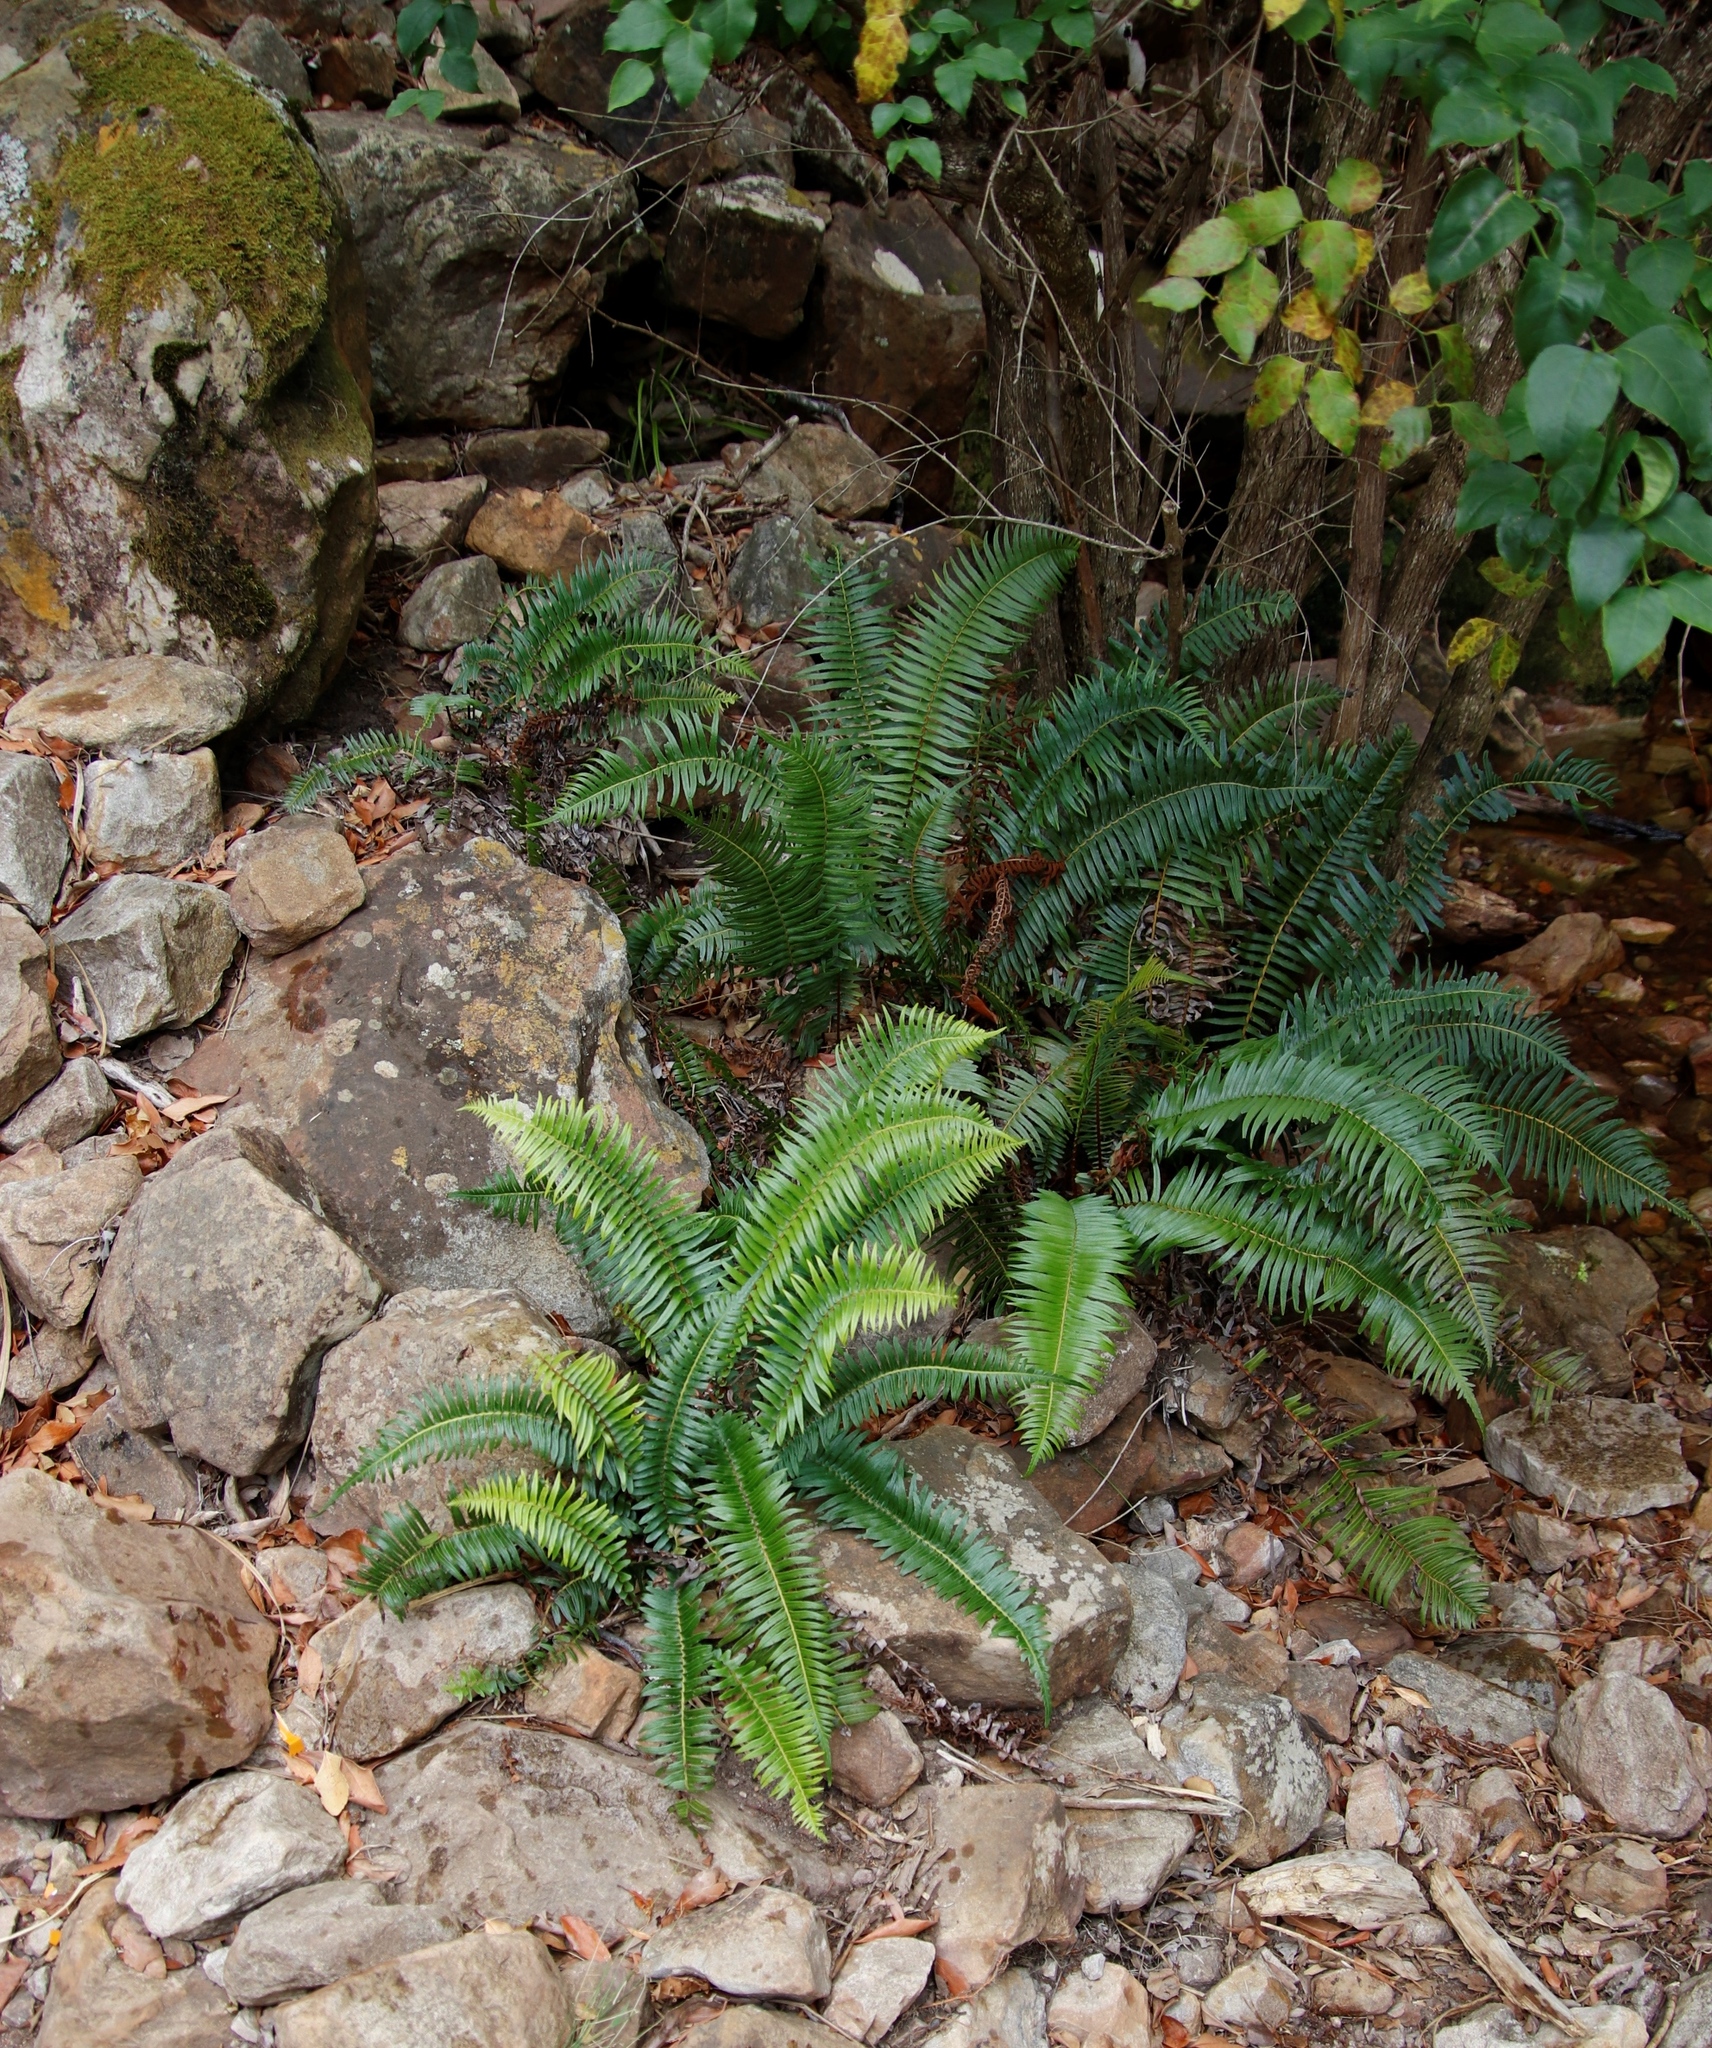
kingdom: Plantae
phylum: Tracheophyta
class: Polypodiopsida
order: Polypodiales
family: Blechnaceae
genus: Blechnum
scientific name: Blechnum punctulatum
